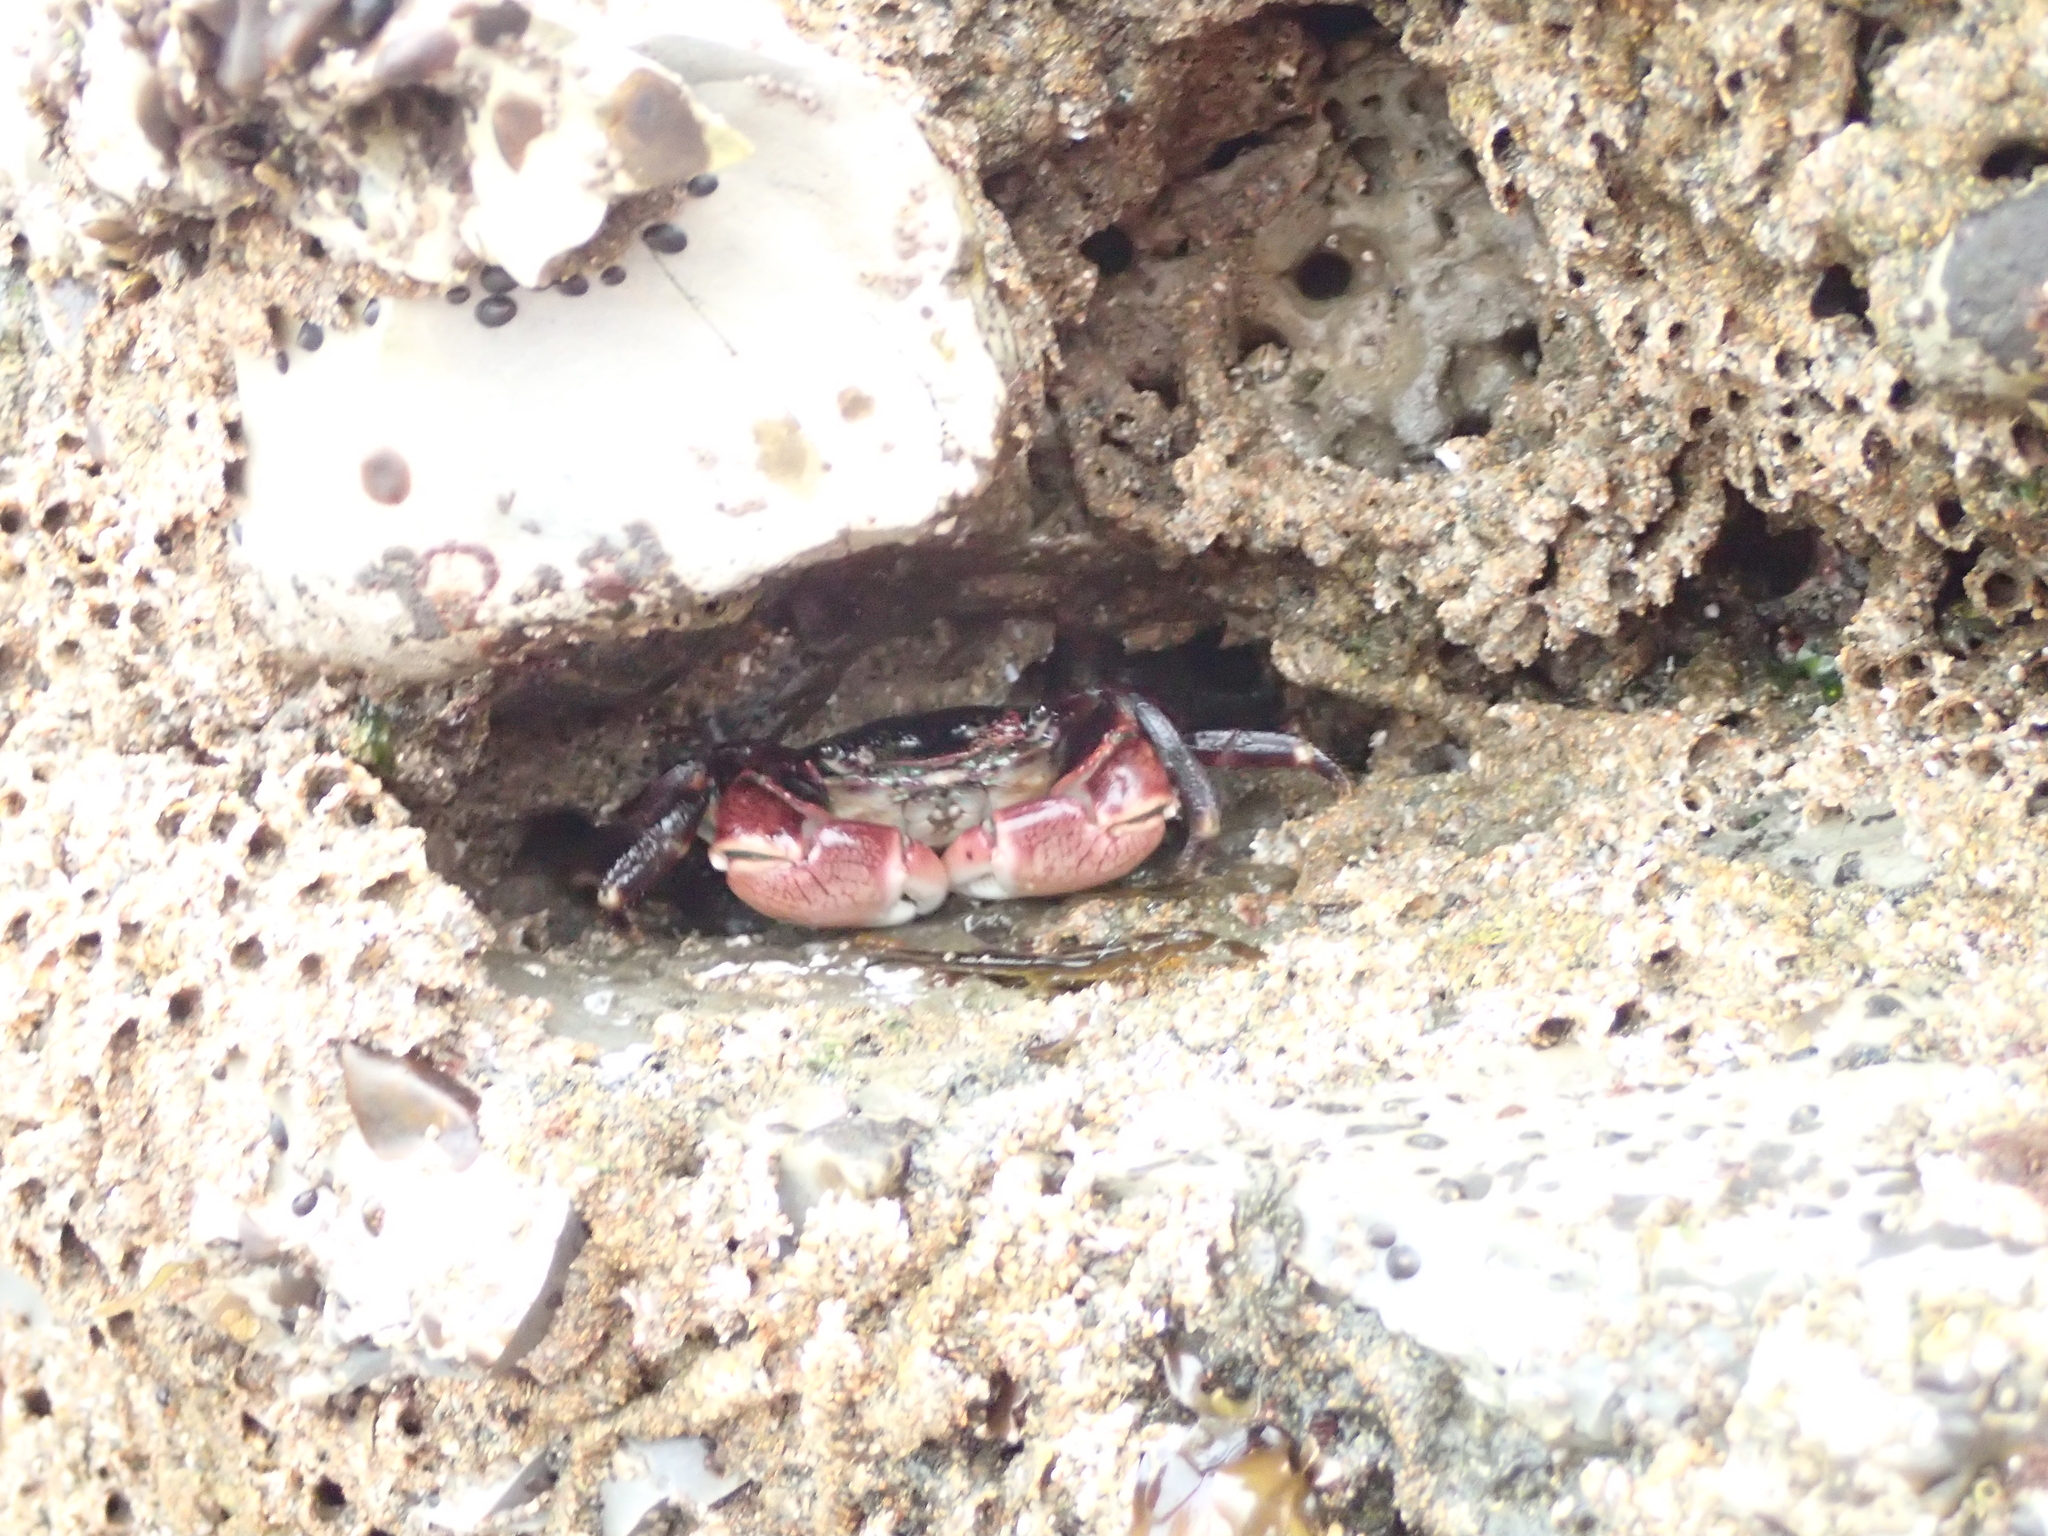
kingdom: Animalia
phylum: Arthropoda
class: Malacostraca
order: Decapoda
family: Grapsidae
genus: Pachygrapsus
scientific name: Pachygrapsus crassipes
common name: Striped shore crab
